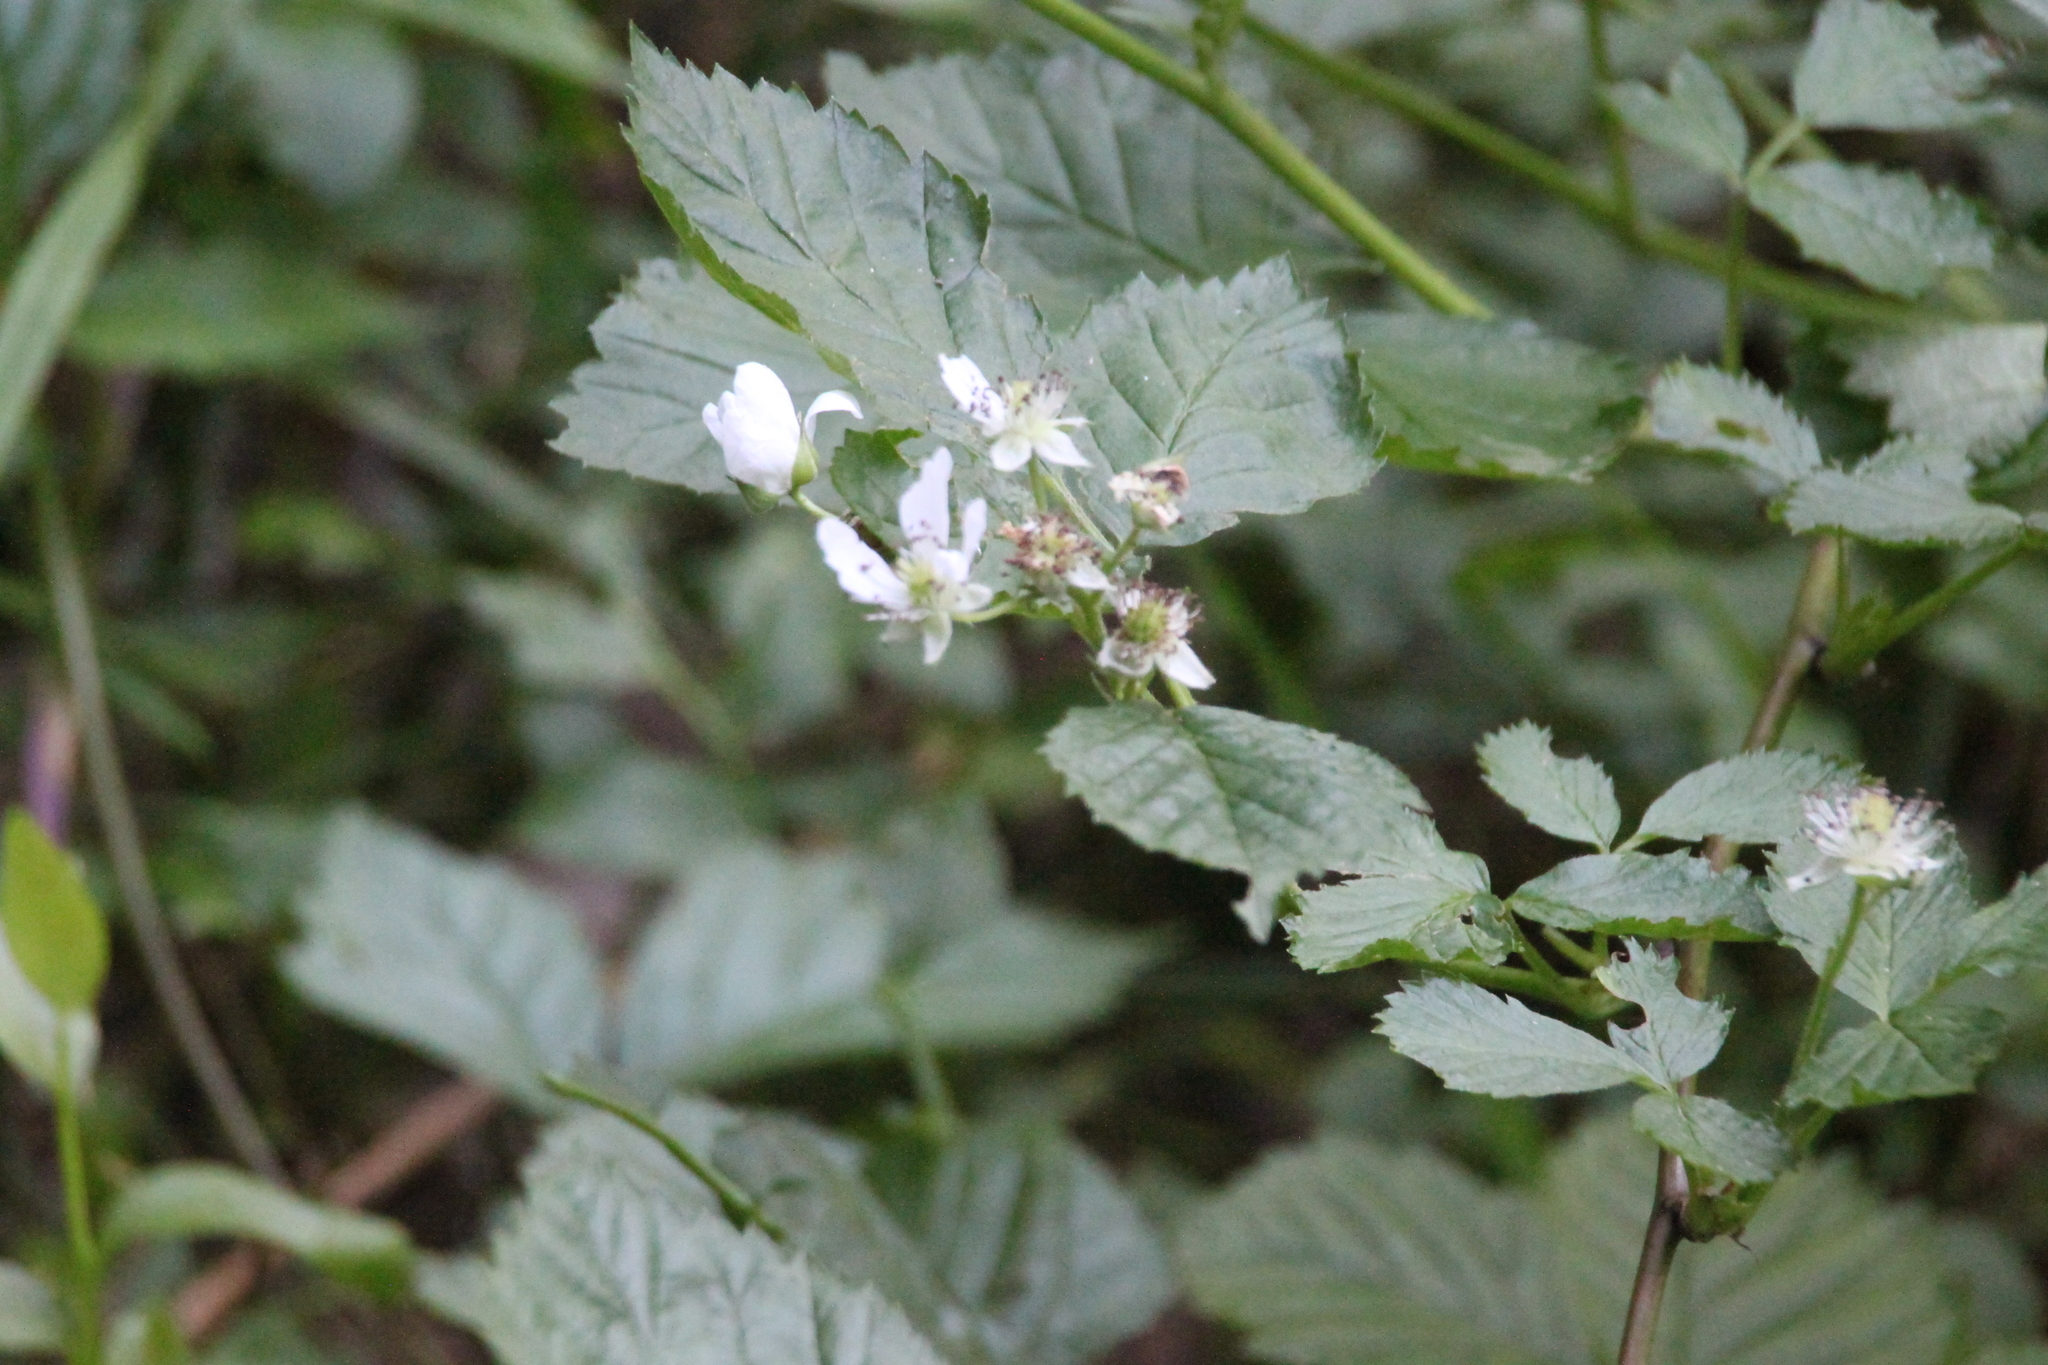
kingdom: Plantae
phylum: Tracheophyta
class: Magnoliopsida
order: Rosales
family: Rosaceae
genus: Rubus
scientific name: Rubus polonicus
